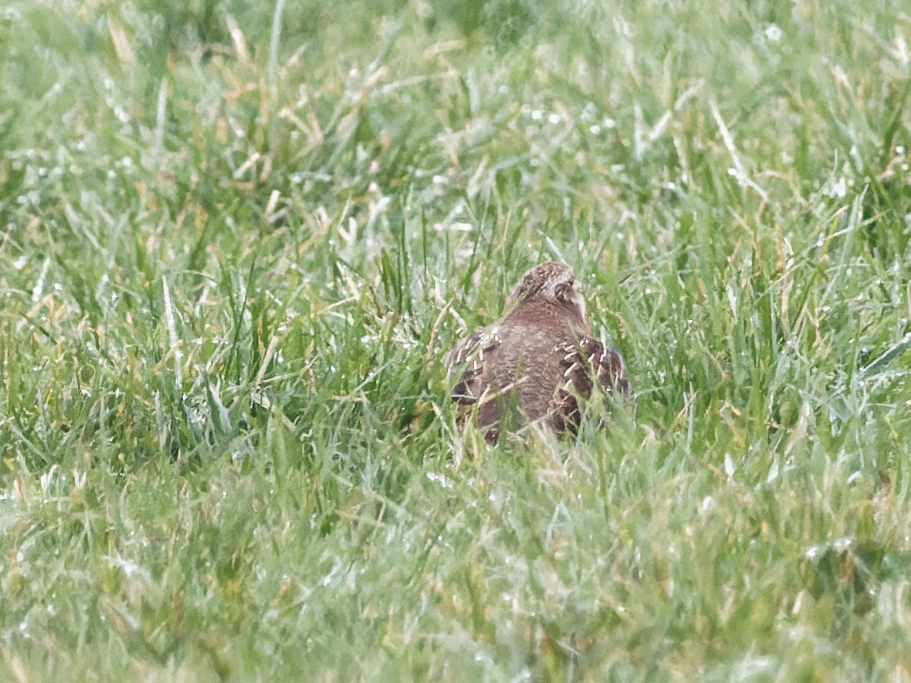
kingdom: Animalia
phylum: Chordata
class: Aves
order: Galliformes
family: Phasianidae
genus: Perdix
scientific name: Perdix perdix
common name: Grey partridge
